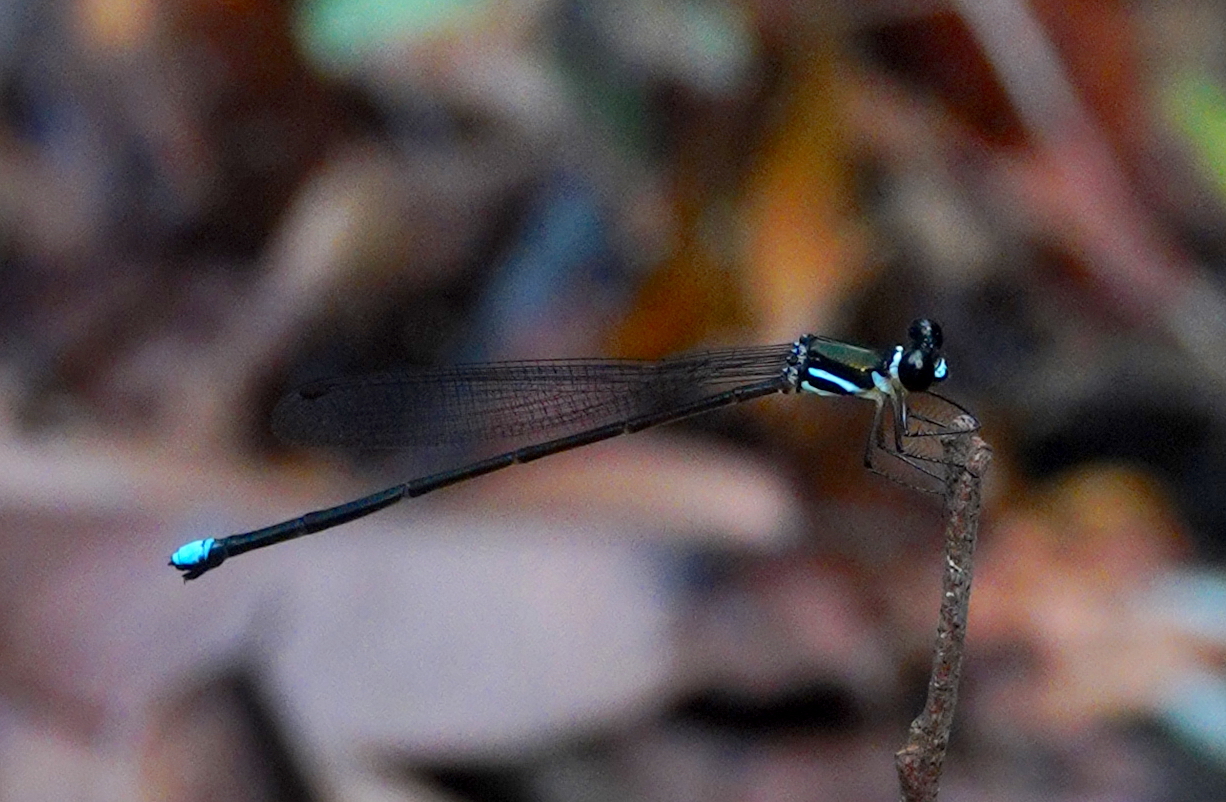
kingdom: Animalia
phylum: Arthropoda
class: Insecta
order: Odonata
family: Platystictidae
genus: Platysticta
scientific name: Platysticta serendibica
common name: Serendib forestdamsel
